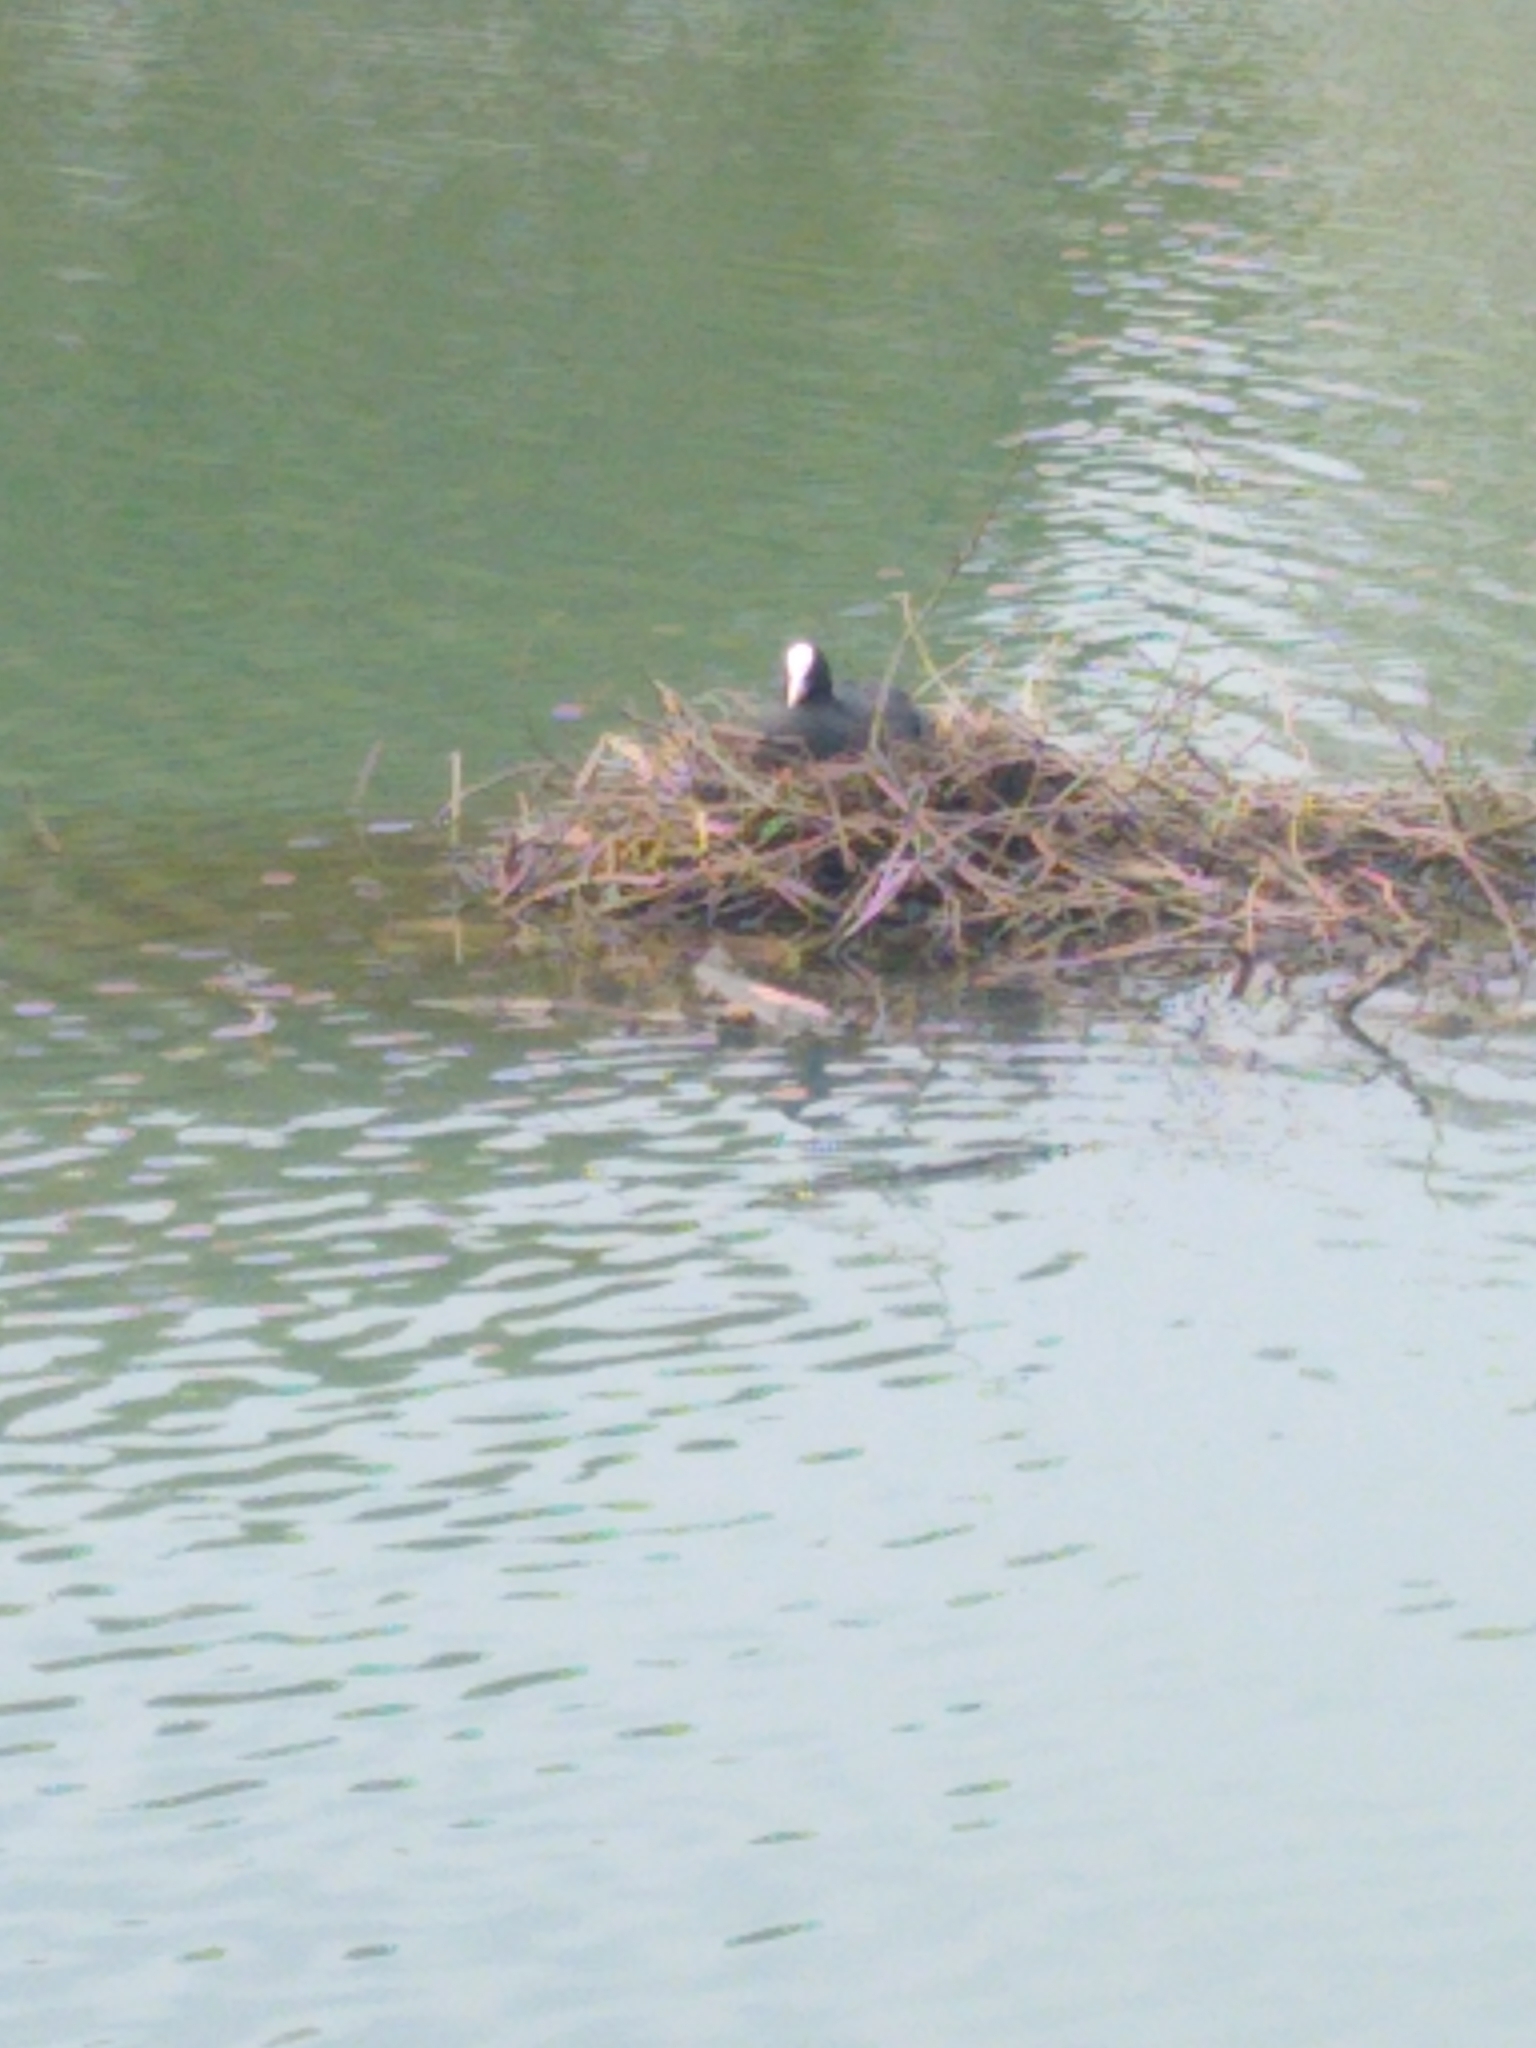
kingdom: Animalia
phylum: Chordata
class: Aves
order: Gruiformes
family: Rallidae
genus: Fulica
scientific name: Fulica atra
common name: Eurasian coot
